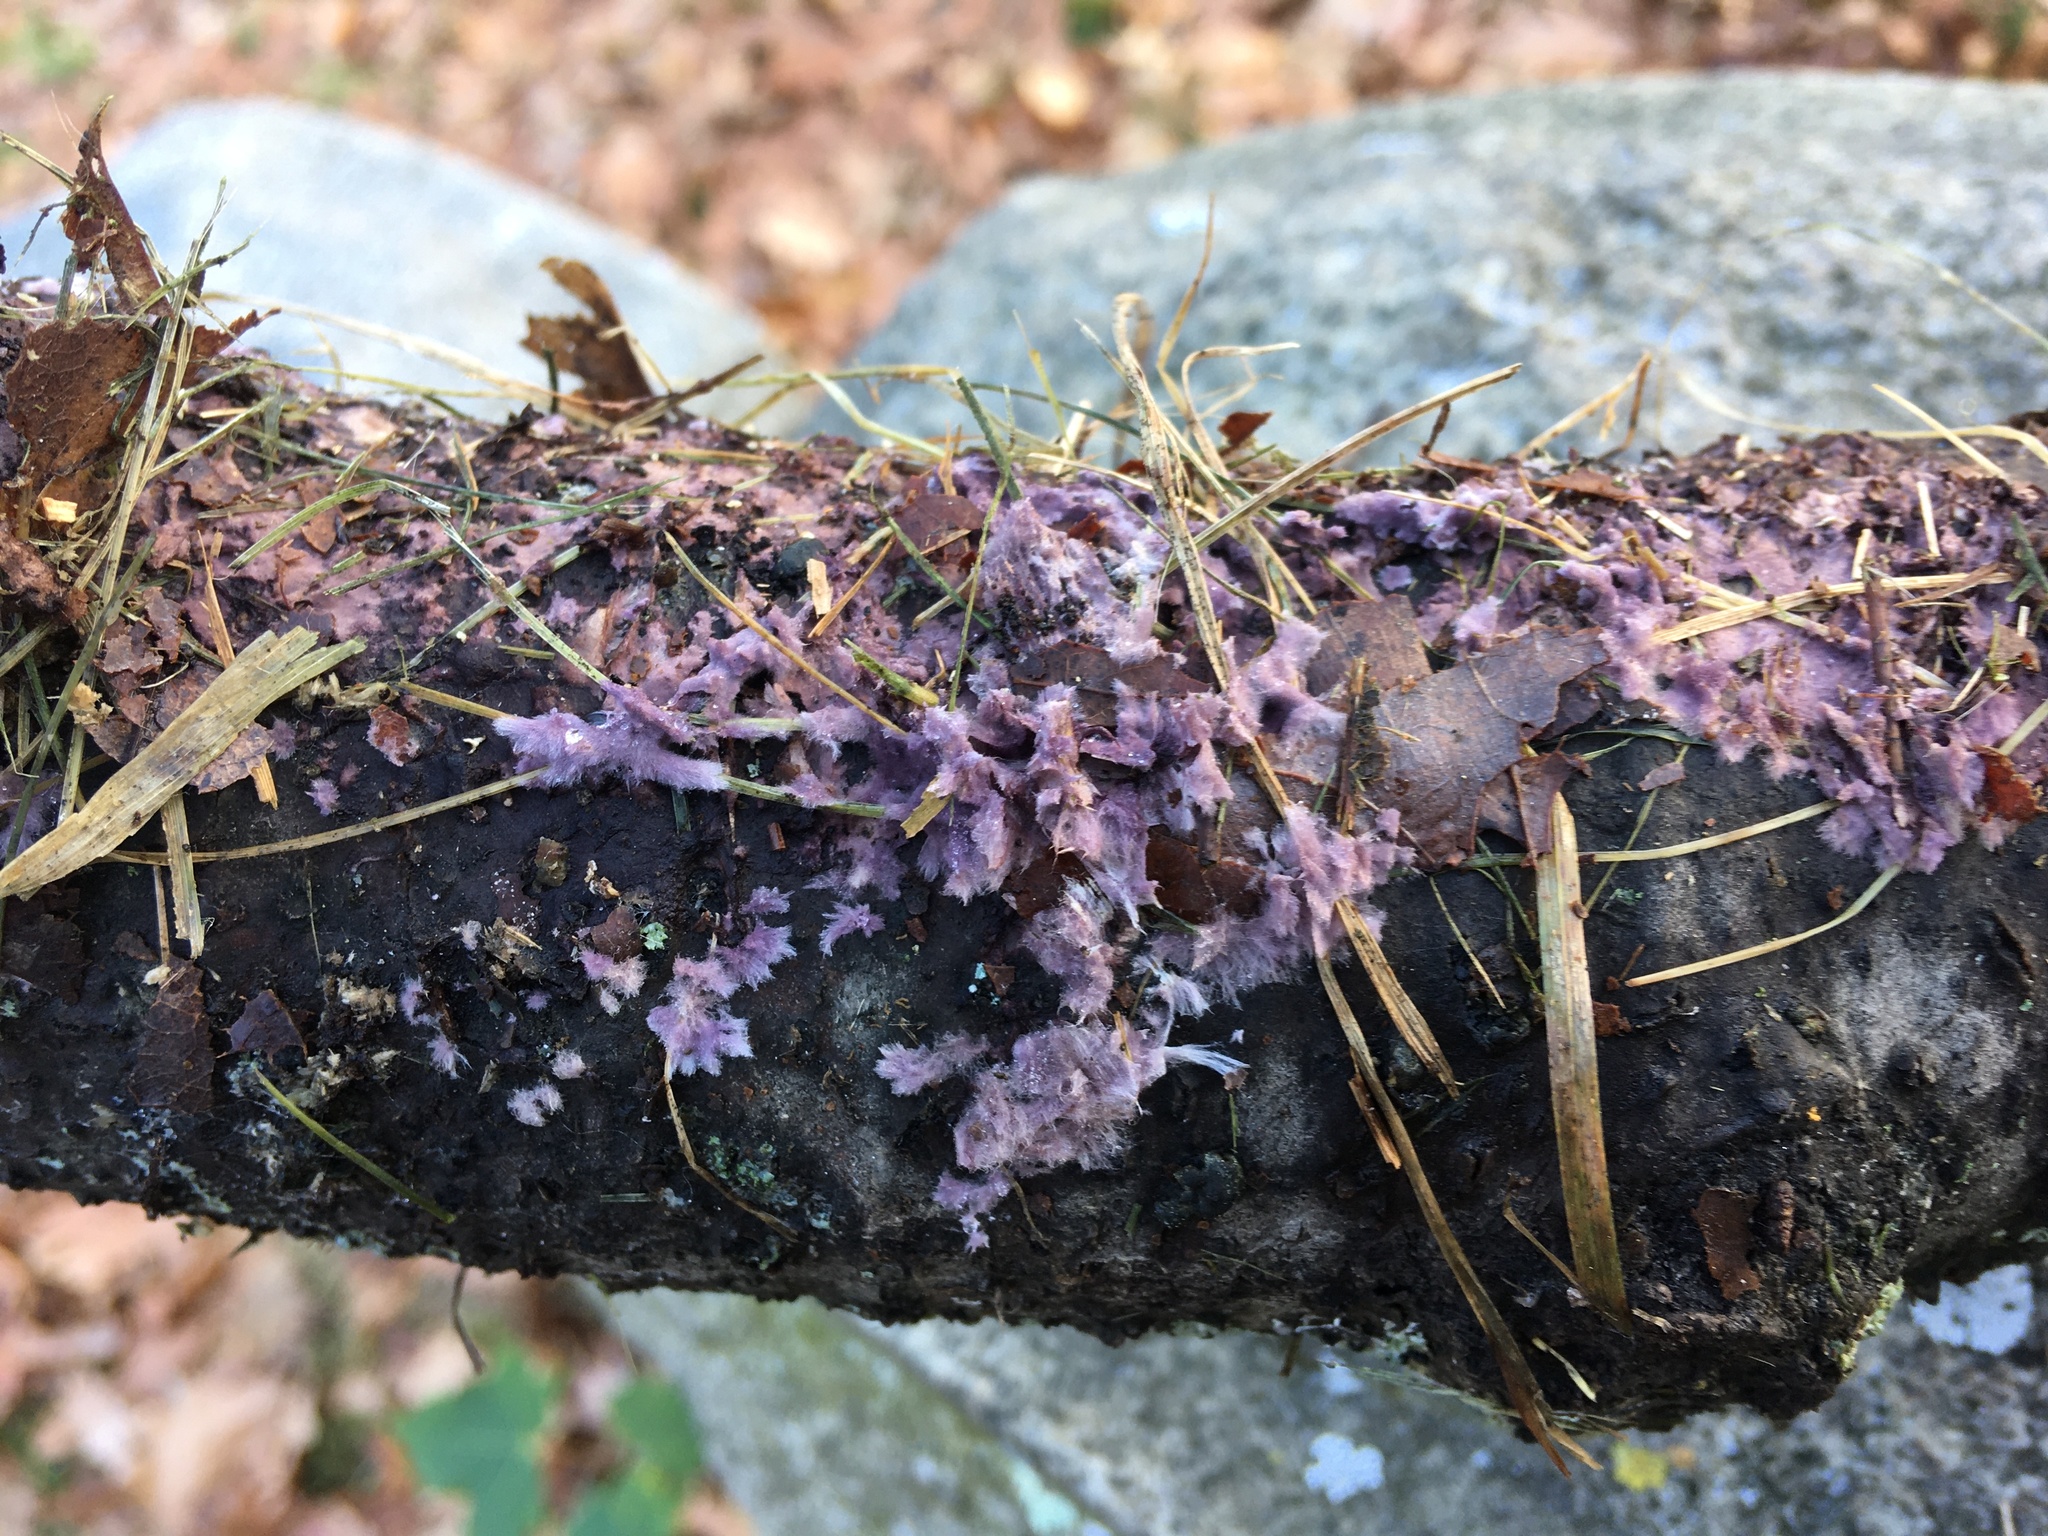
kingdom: Fungi
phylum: Basidiomycota
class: Agaricomycetes
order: Polyporales
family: Phanerochaetaceae
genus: Phlebiopsis
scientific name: Phlebiopsis crassa
